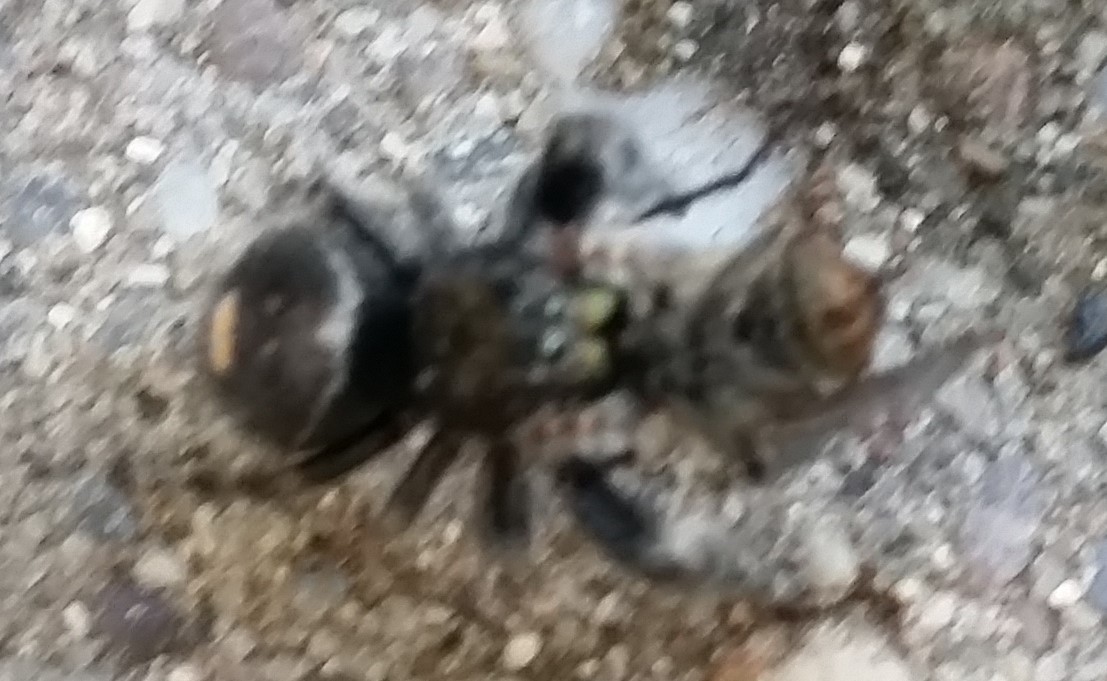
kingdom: Animalia
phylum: Arthropoda
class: Arachnida
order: Araneae
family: Salticidae
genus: Phidippus
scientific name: Phidippus audax
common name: Bold jumper
